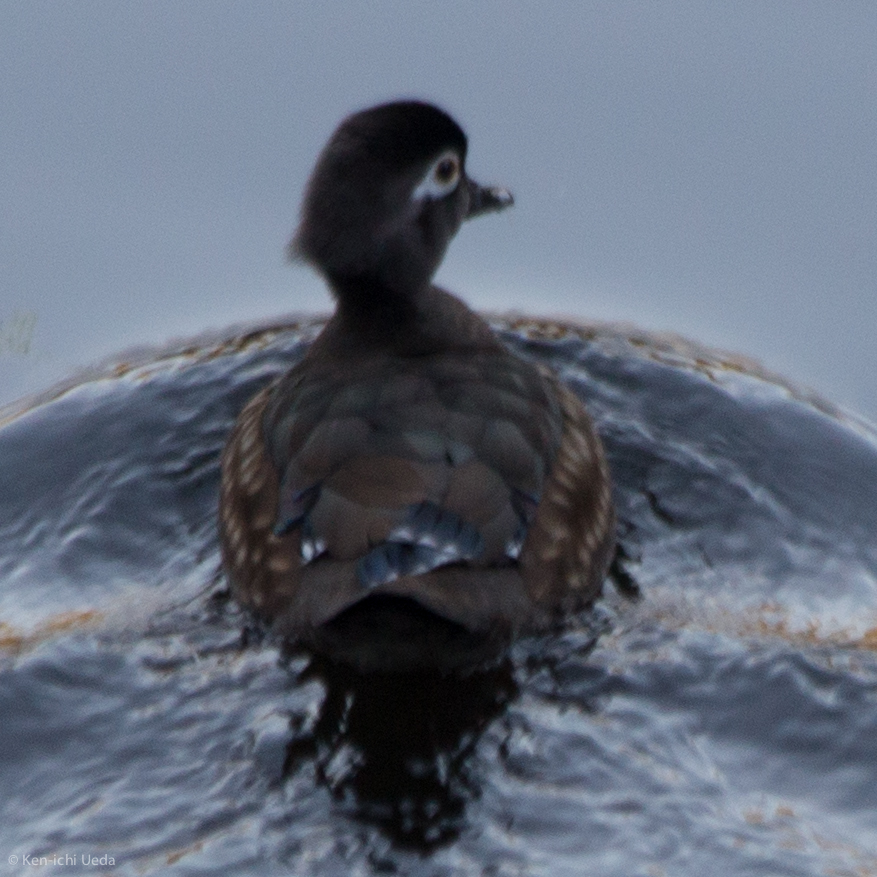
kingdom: Animalia
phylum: Chordata
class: Aves
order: Anseriformes
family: Anatidae
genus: Aix
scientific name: Aix sponsa
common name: Wood duck
